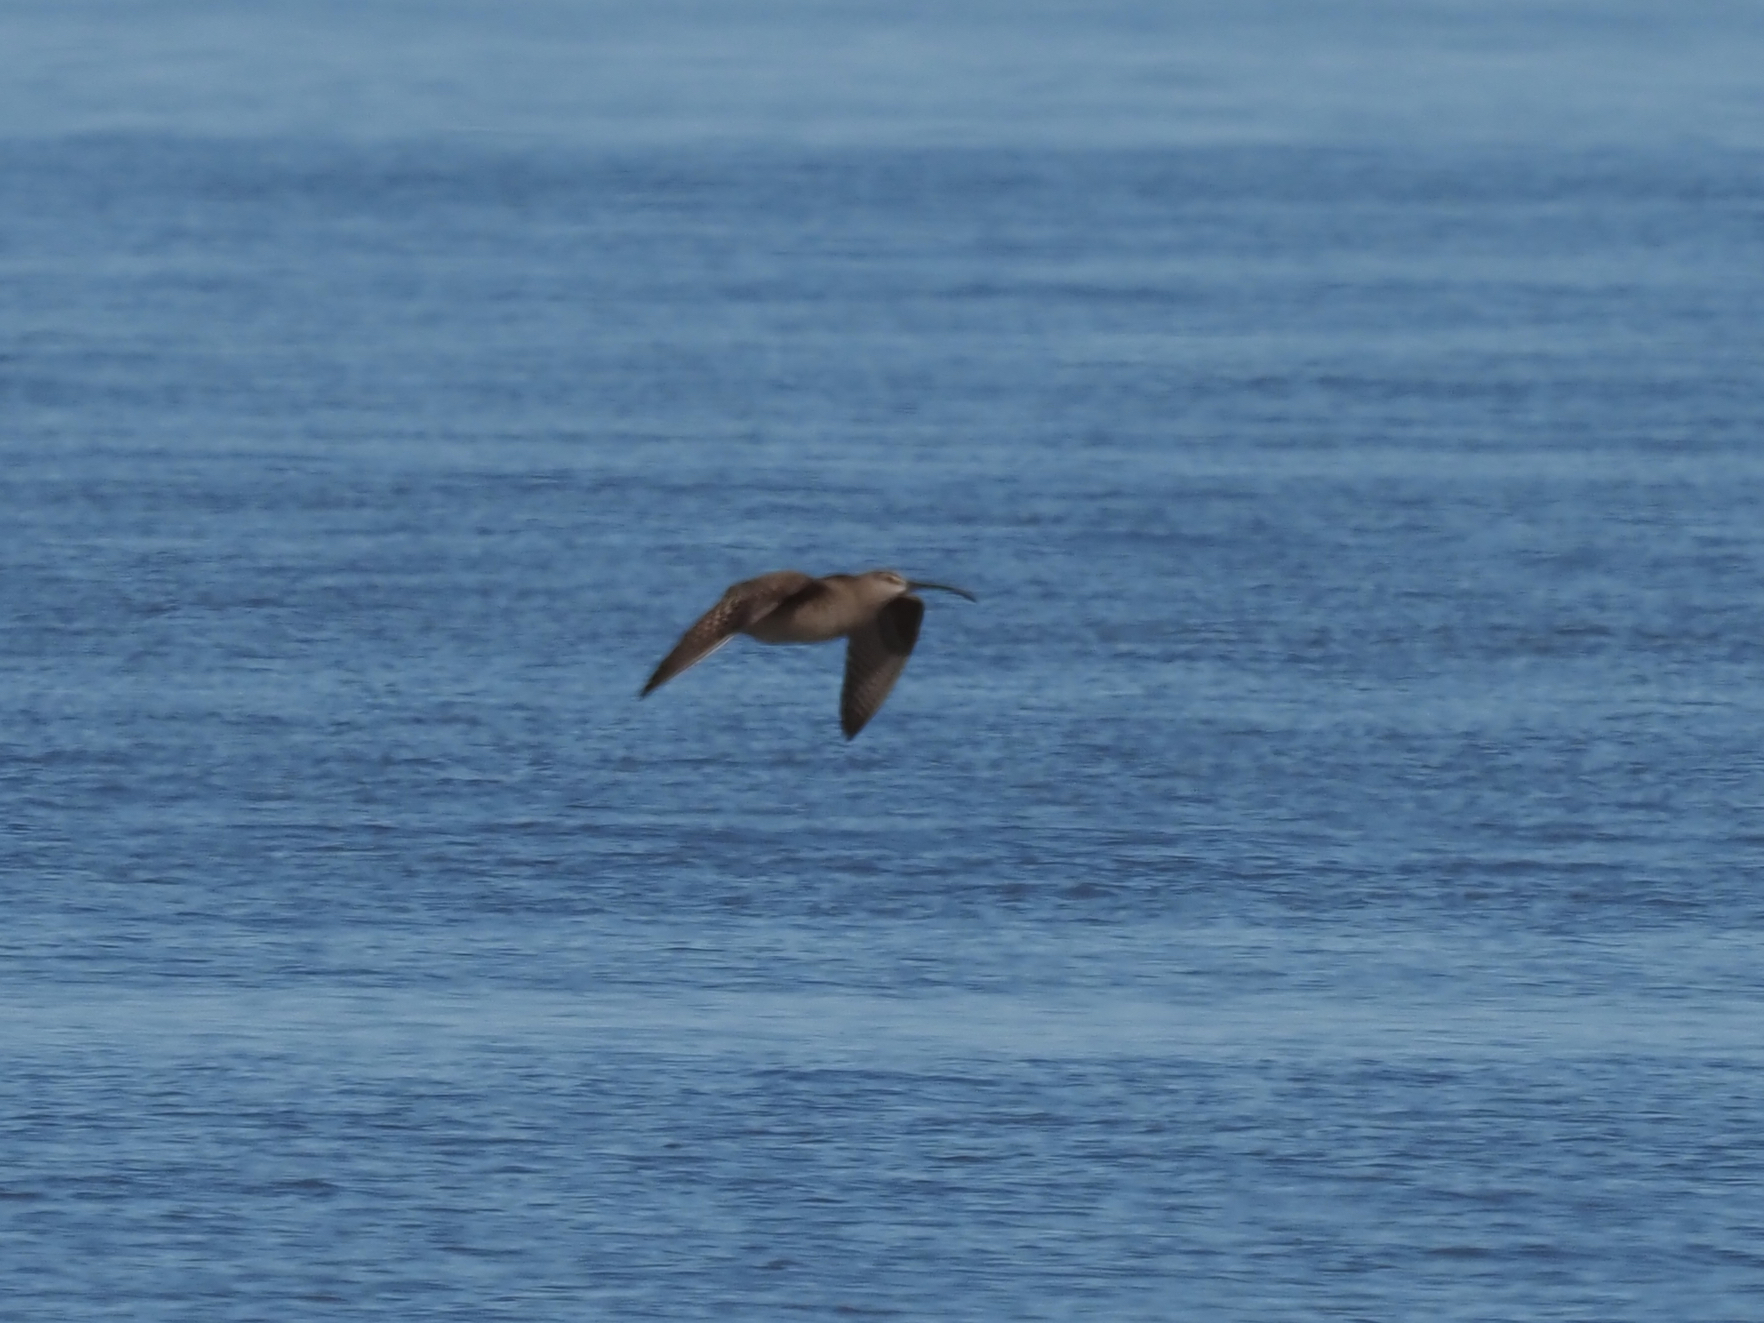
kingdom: Animalia
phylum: Chordata
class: Aves
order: Charadriiformes
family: Scolopacidae
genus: Numenius
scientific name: Numenius phaeopus
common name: Whimbrel
